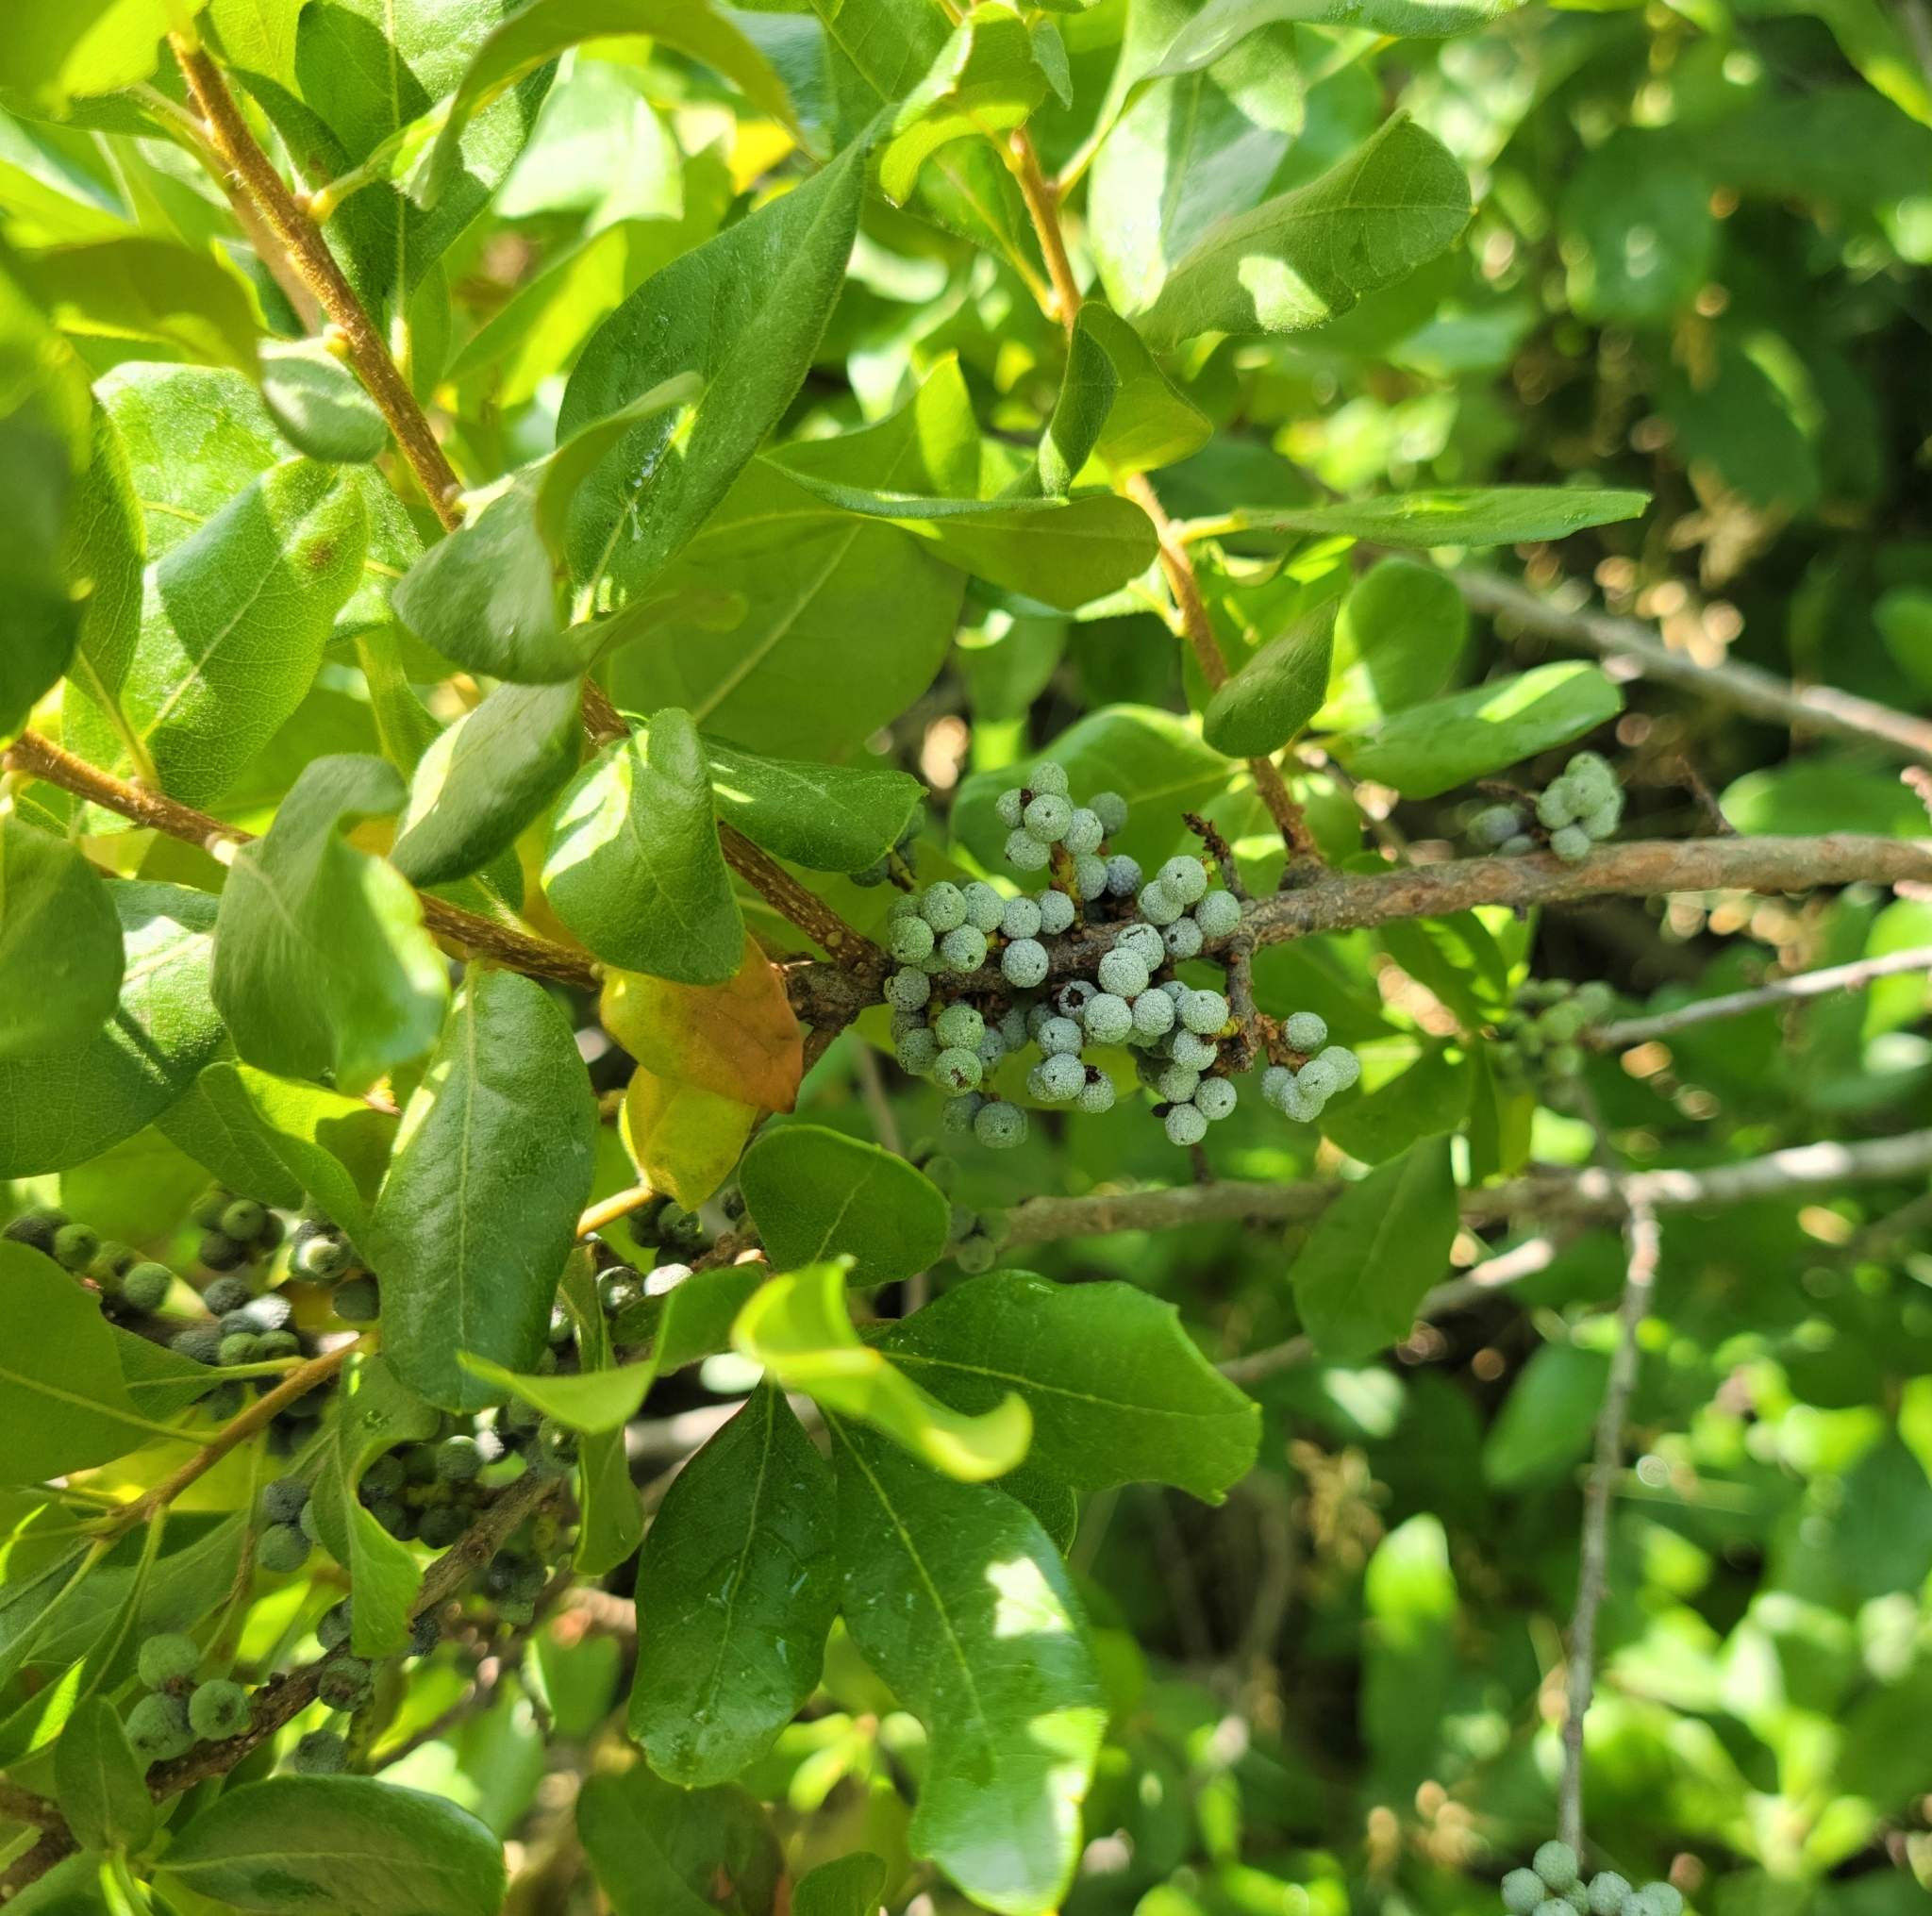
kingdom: Plantae
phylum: Tracheophyta
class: Magnoliopsida
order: Fagales
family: Myricaceae
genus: Morella
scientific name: Morella pensylvanica
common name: Northern bayberry
